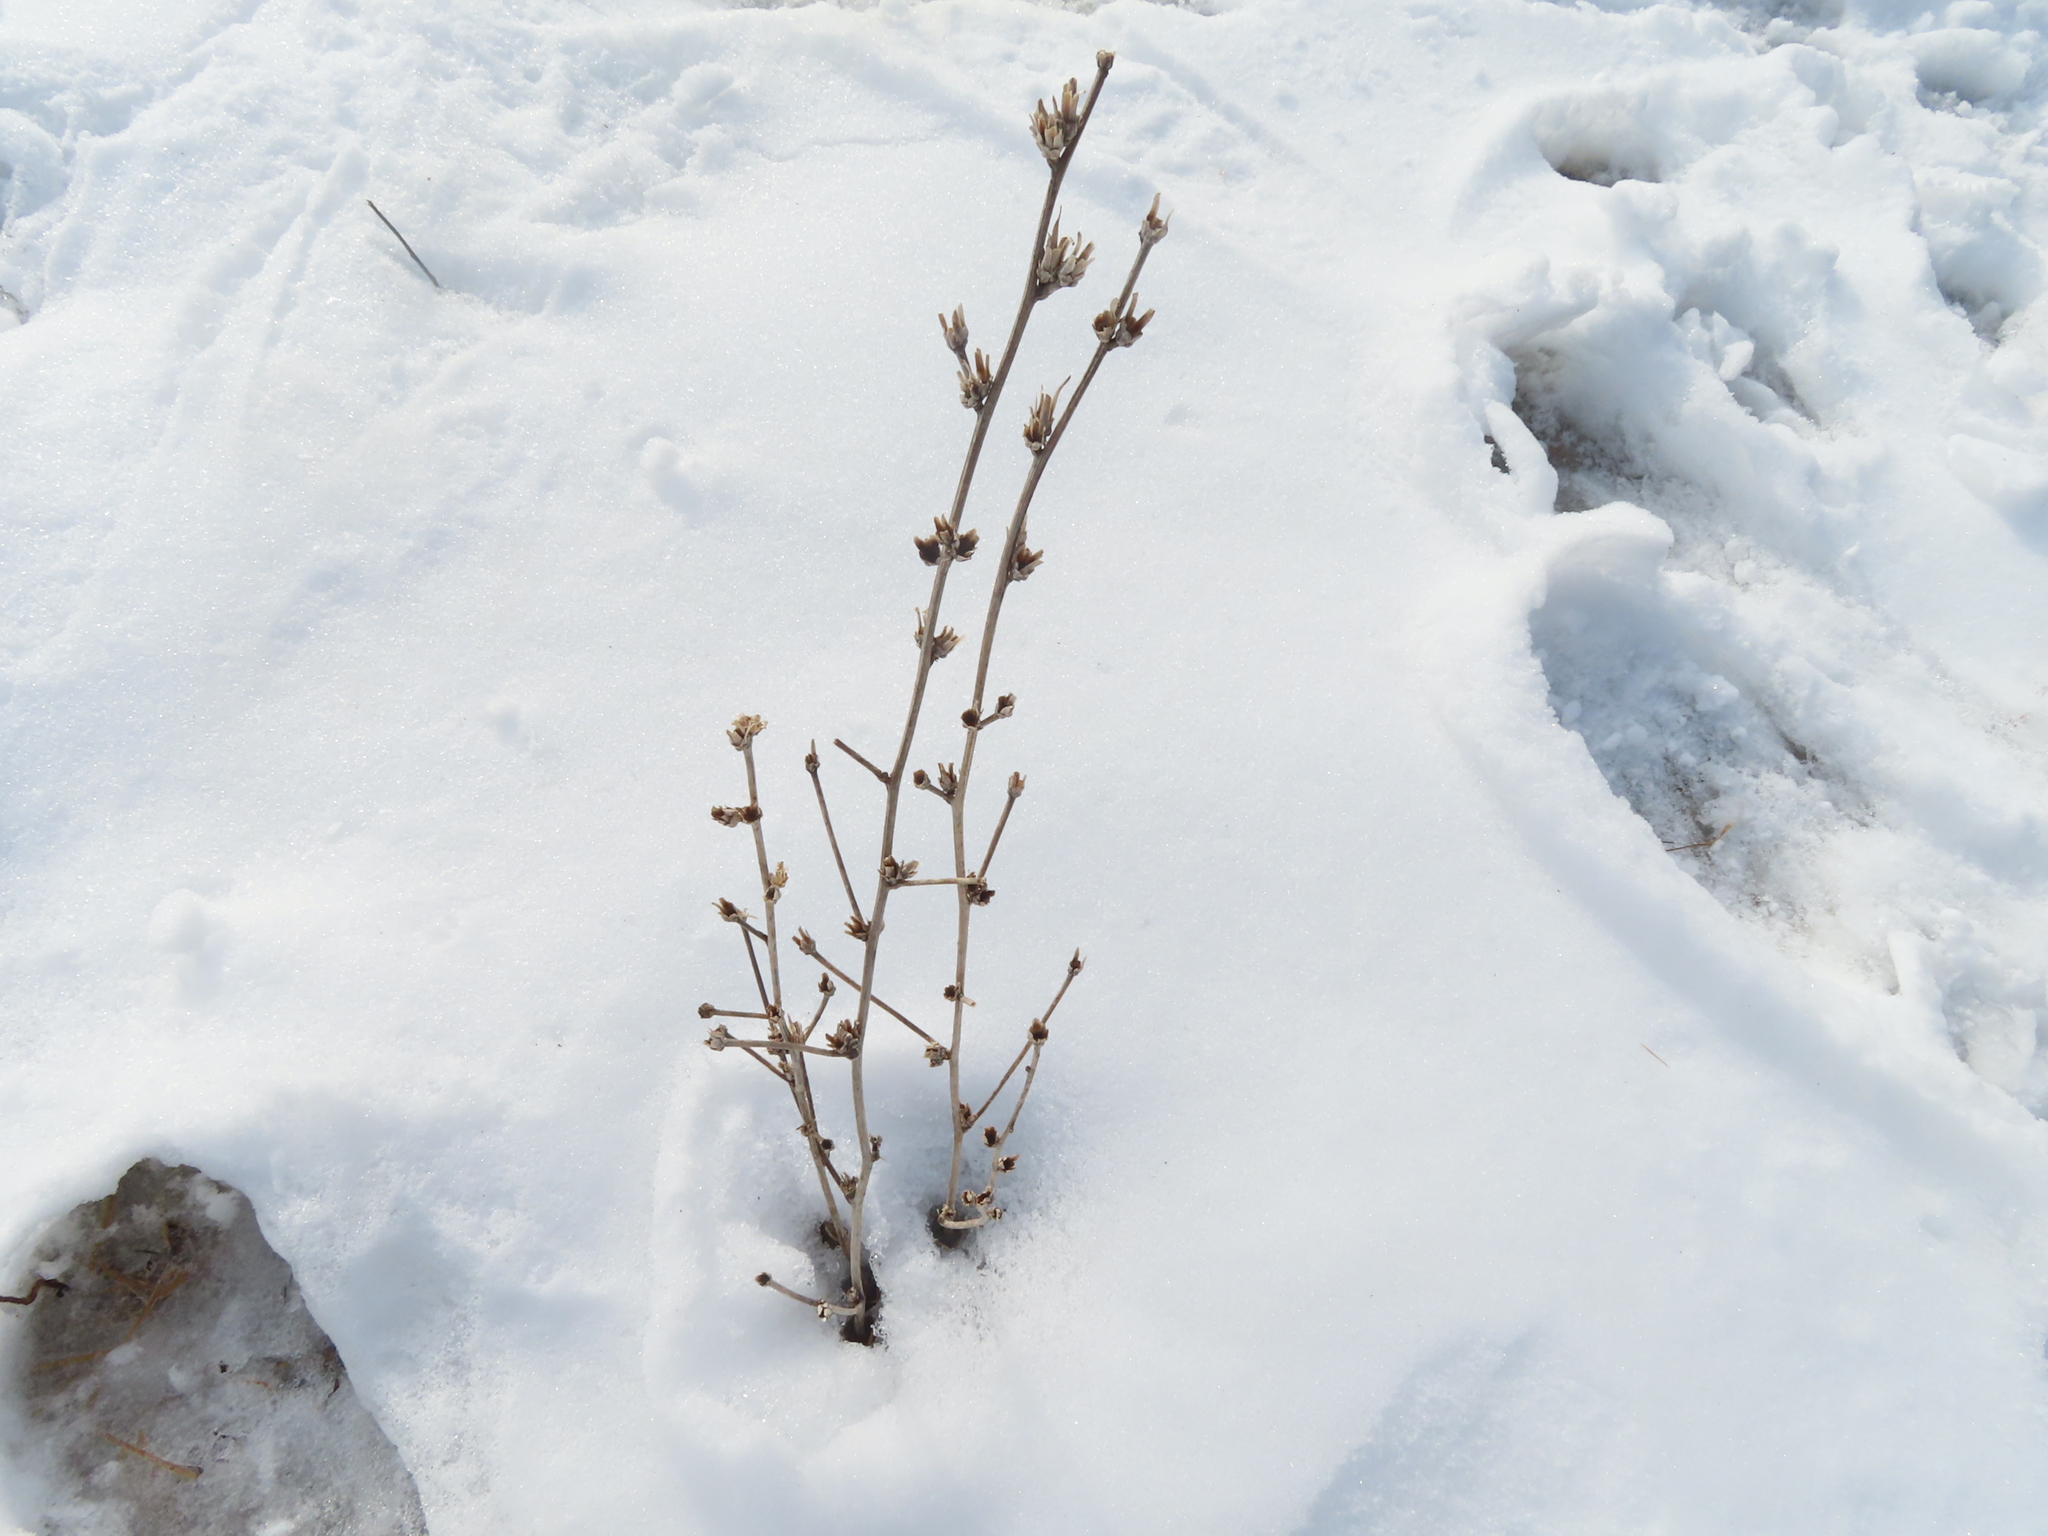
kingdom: Plantae
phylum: Tracheophyta
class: Magnoliopsida
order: Asterales
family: Asteraceae
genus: Cichorium
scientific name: Cichorium intybus
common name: Chicory
